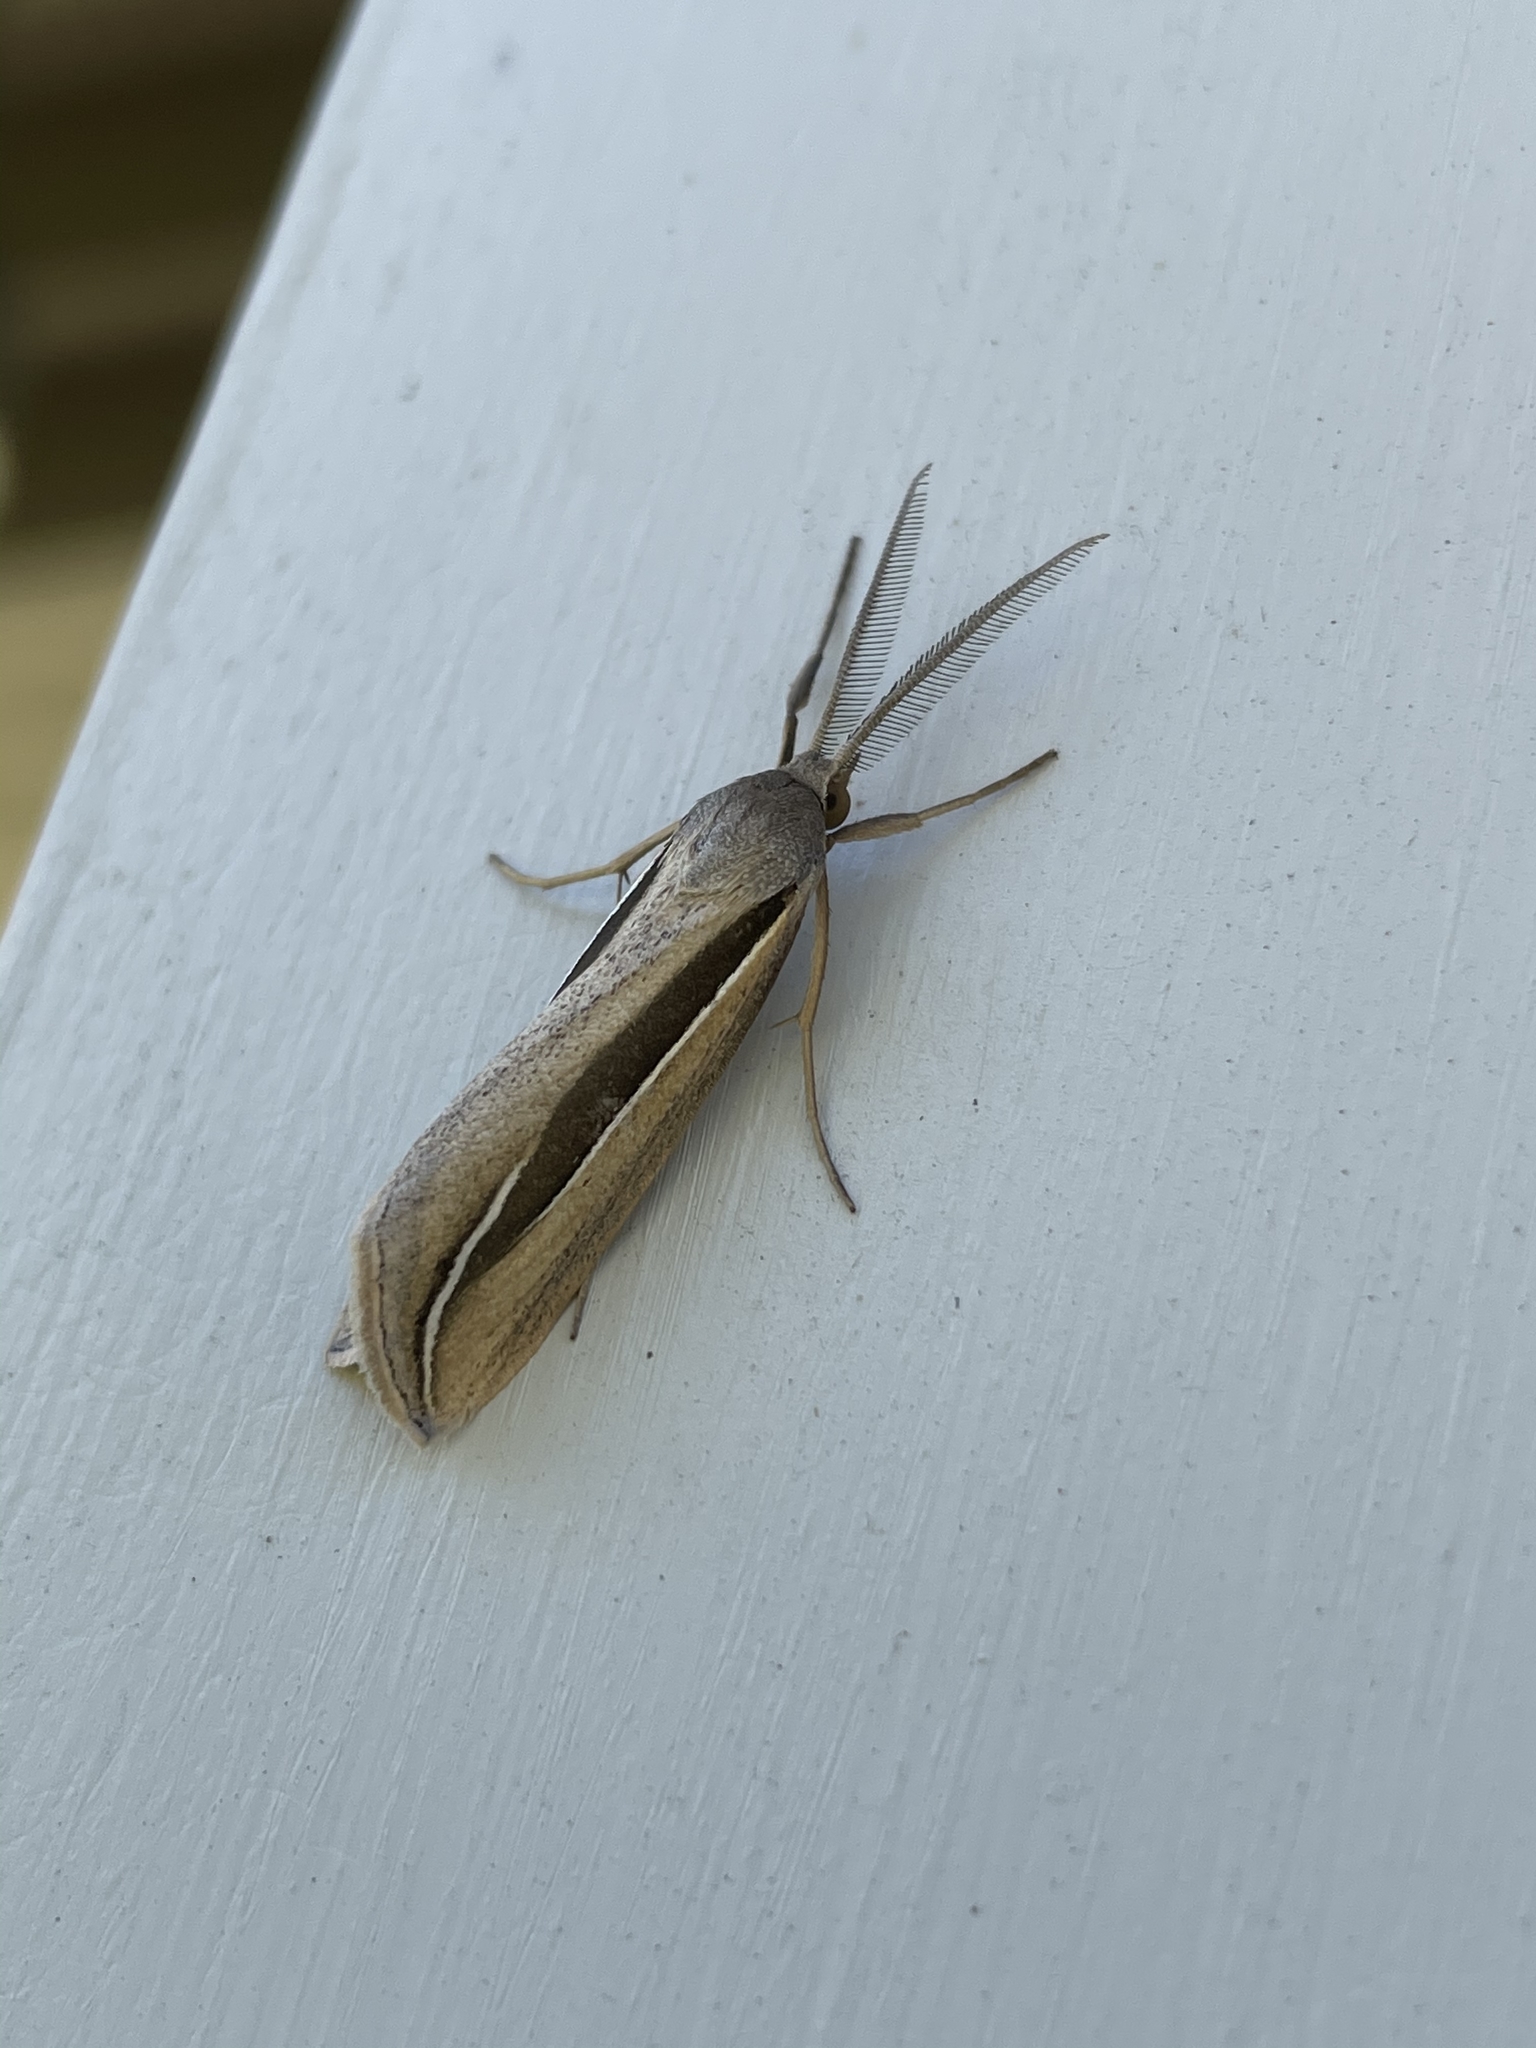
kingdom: Animalia
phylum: Arthropoda
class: Insecta
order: Lepidoptera
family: Erebidae
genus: Doryodes
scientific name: Doryodes latistriga
